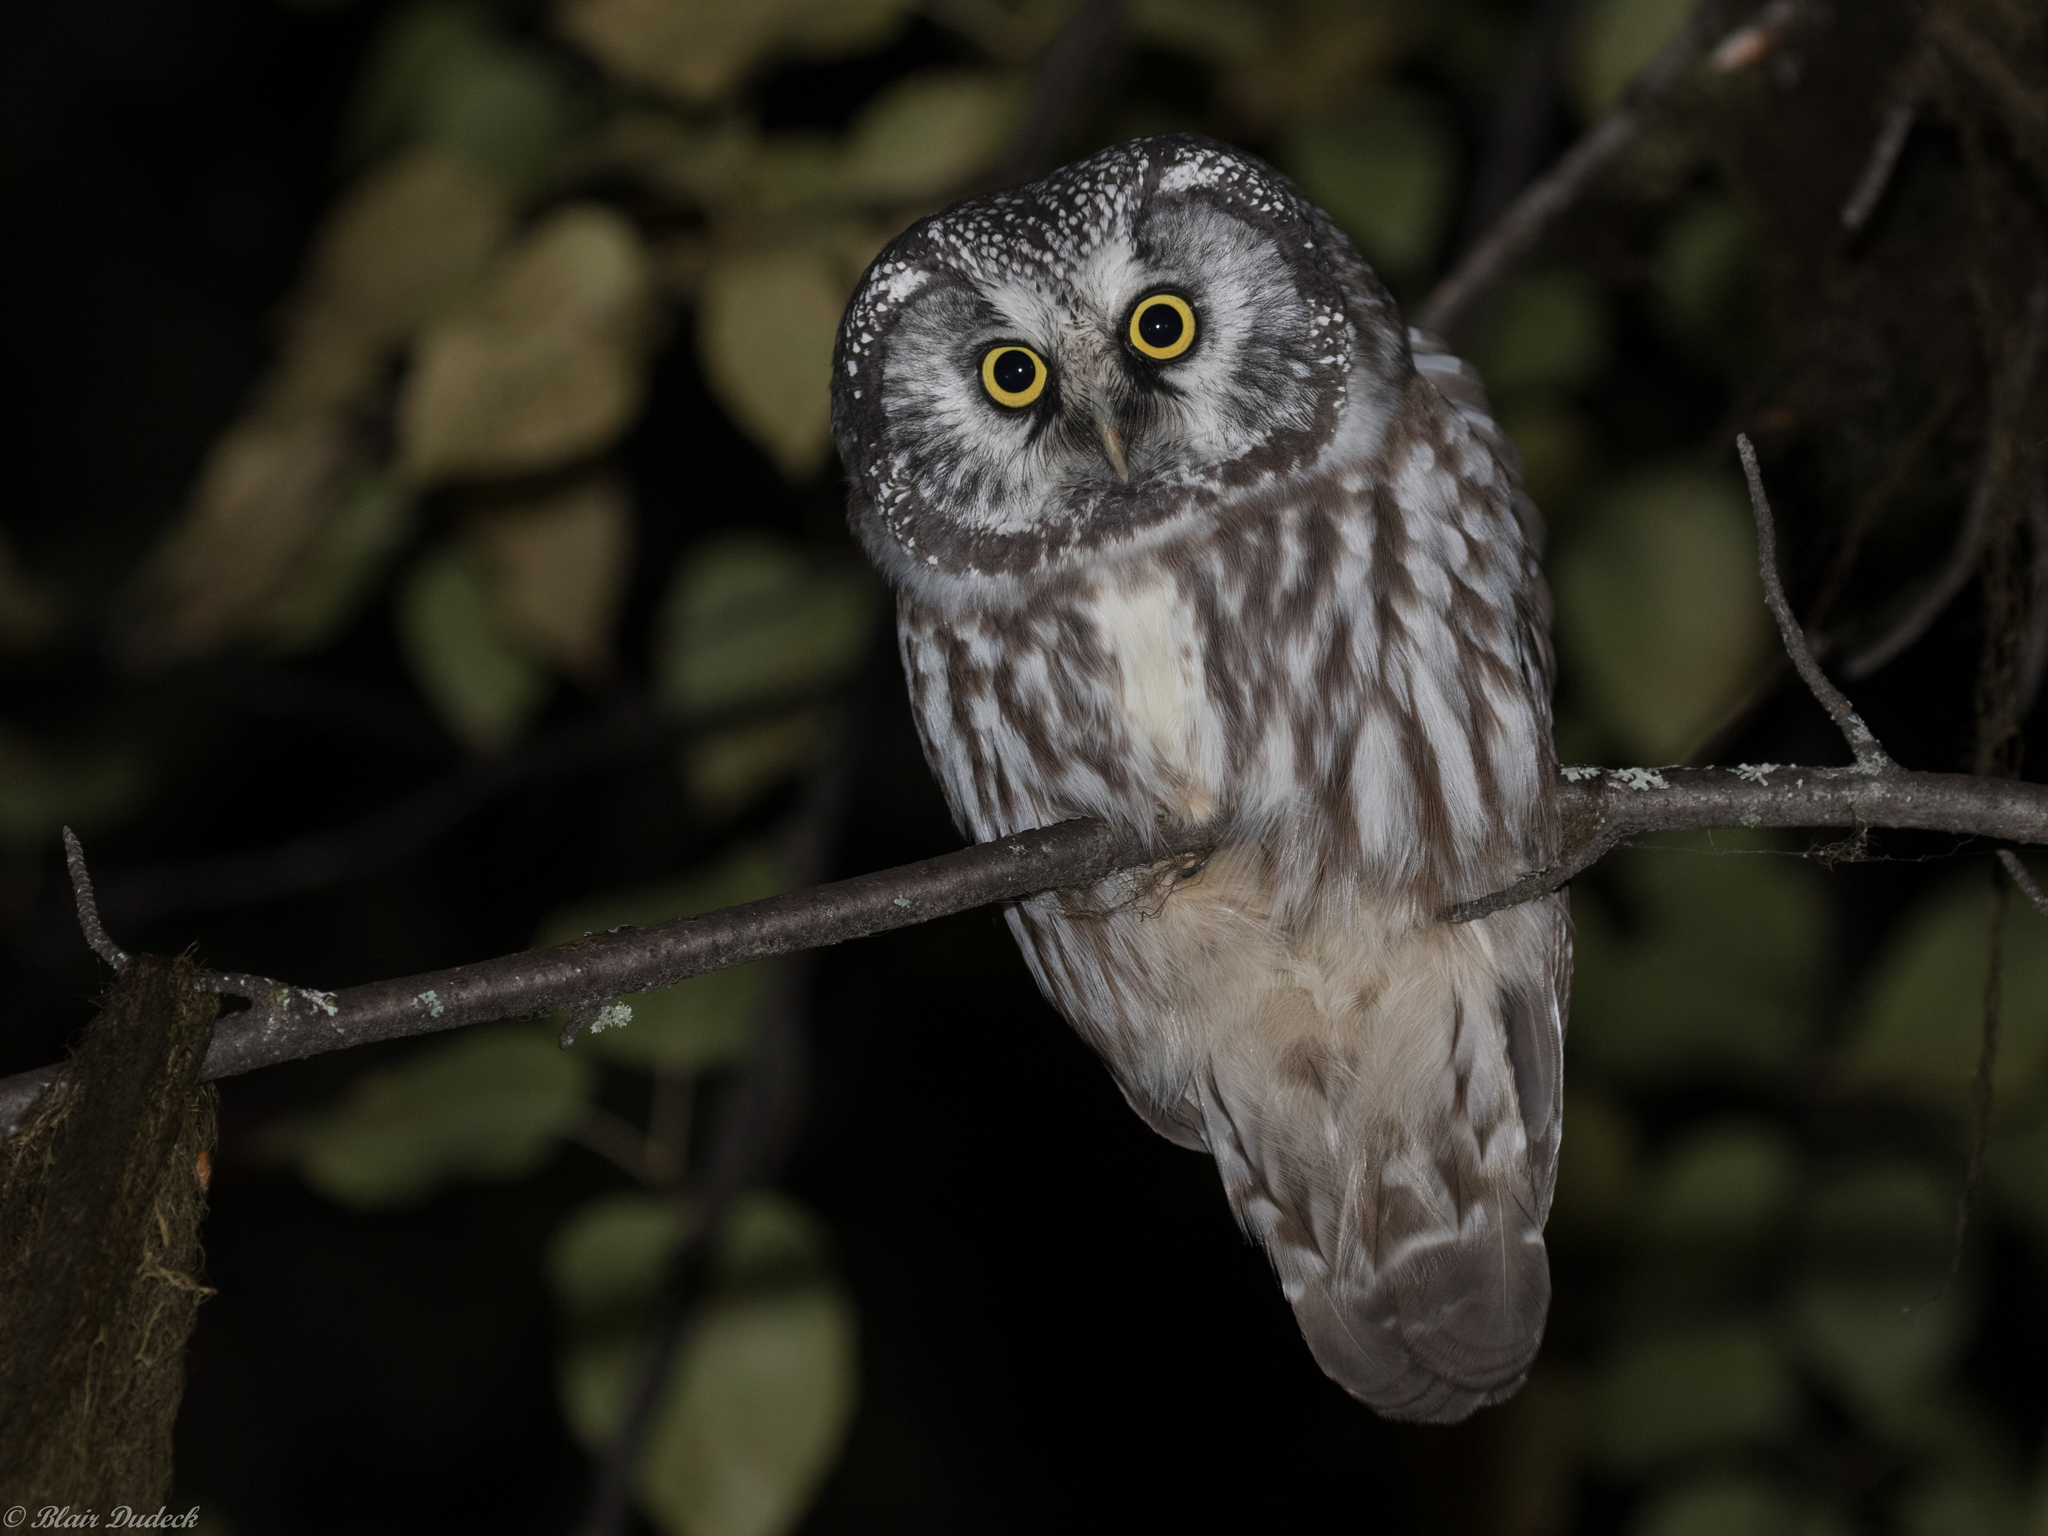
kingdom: Animalia
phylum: Chordata
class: Aves
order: Strigiformes
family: Strigidae
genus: Aegolius
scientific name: Aegolius funereus
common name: Boreal owl
